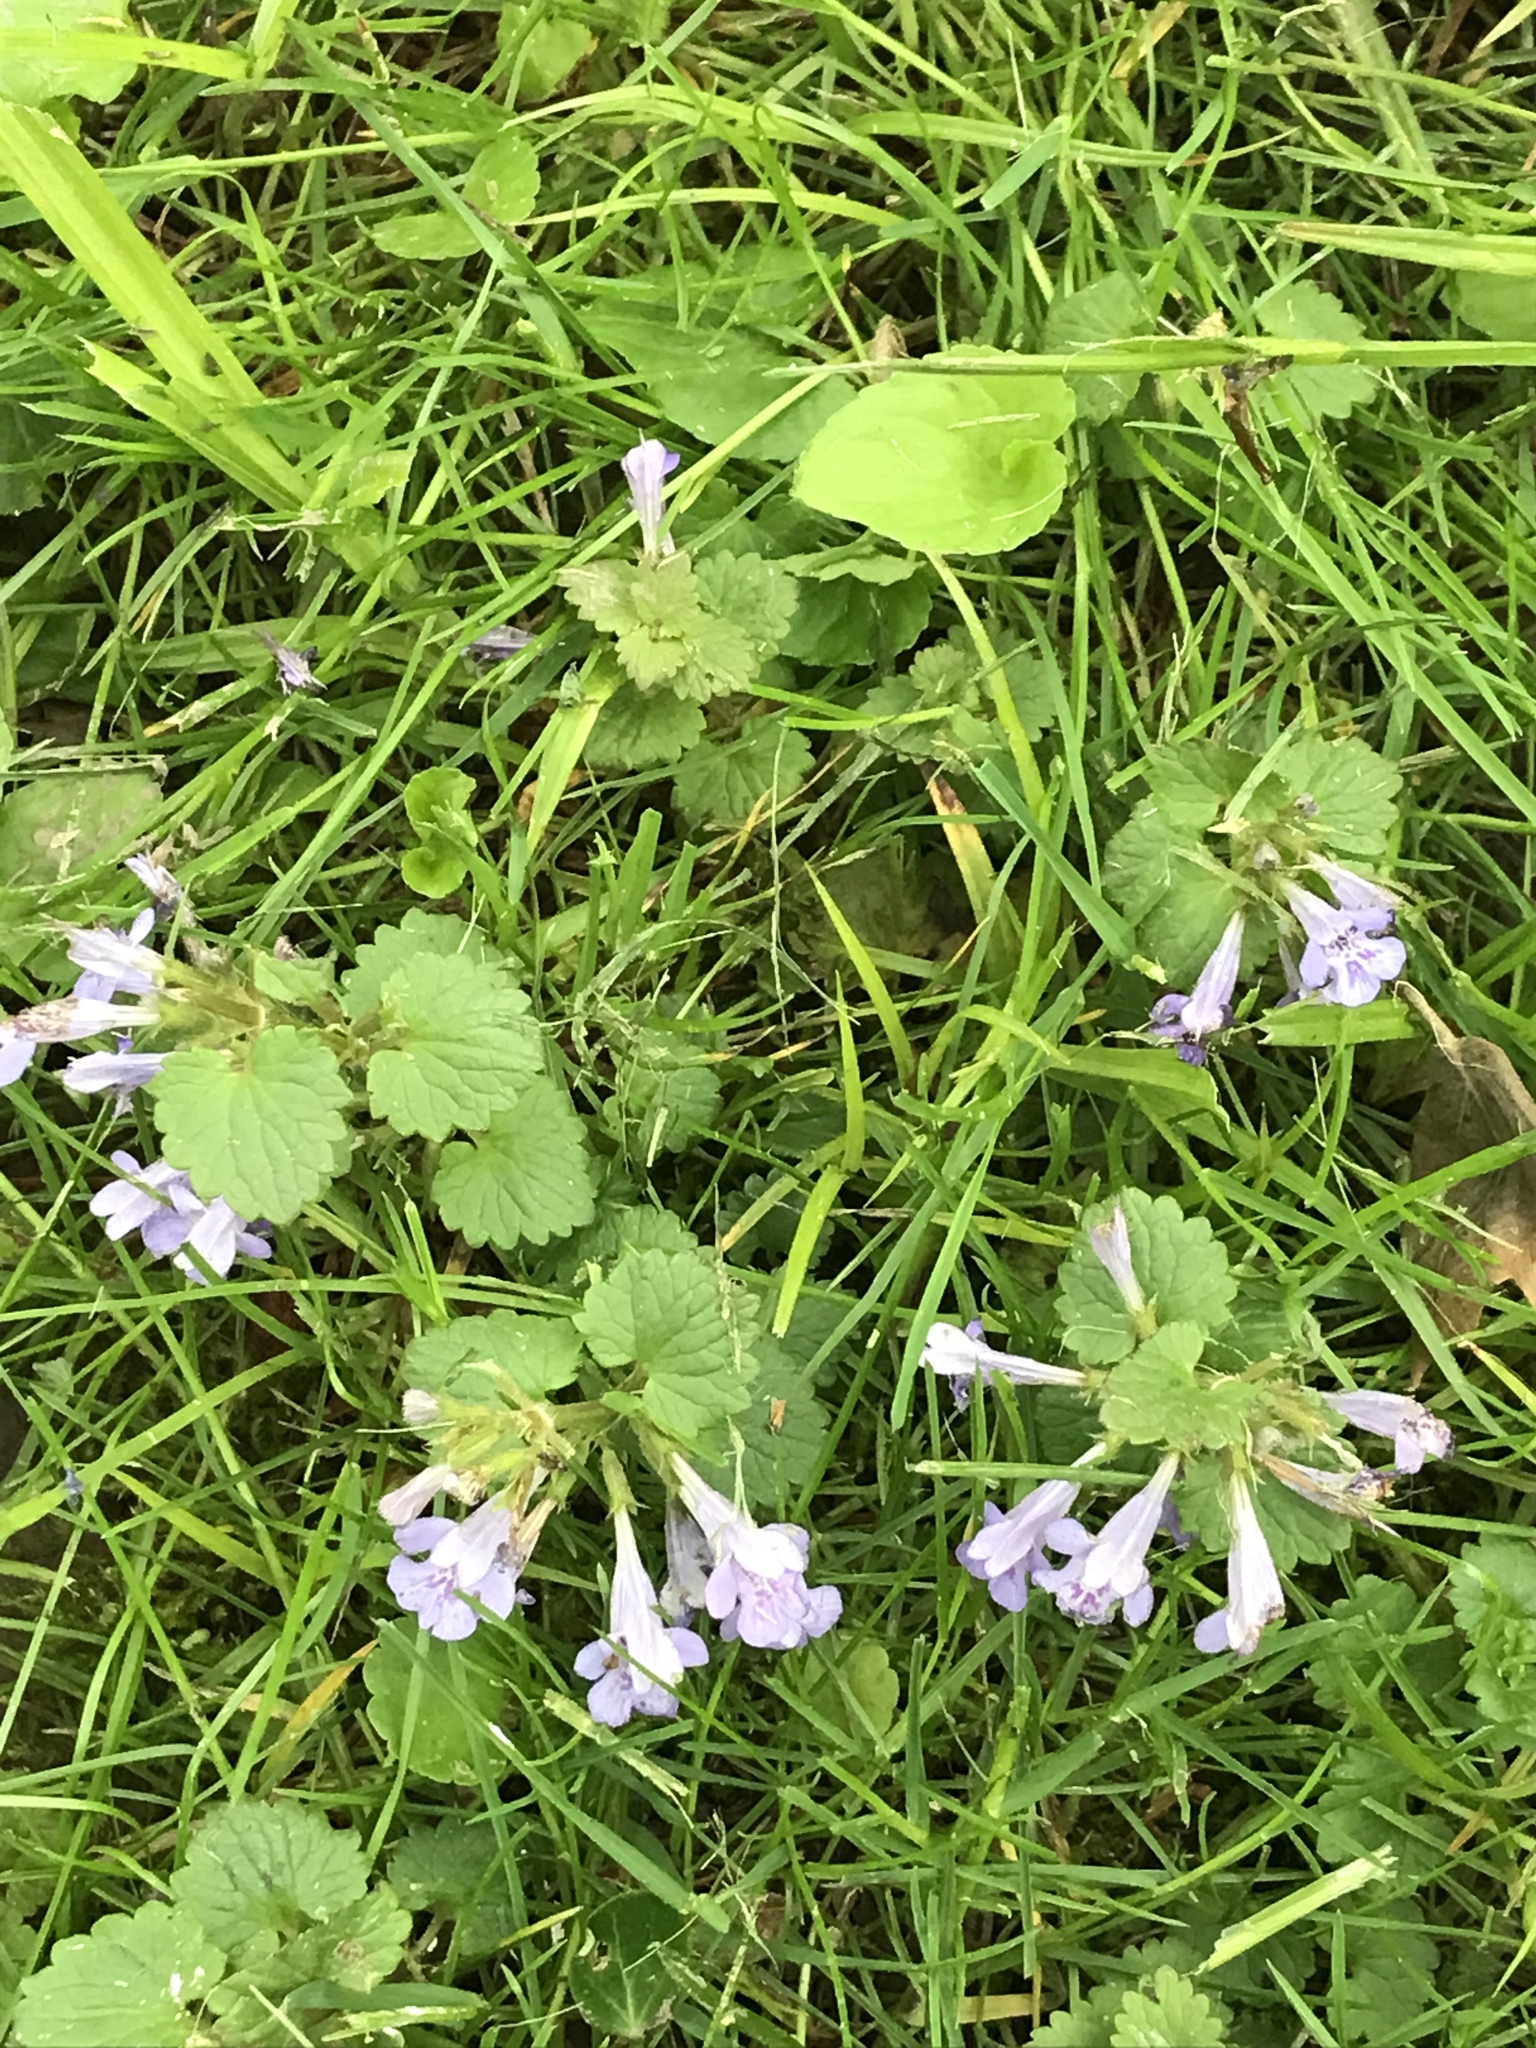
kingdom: Plantae
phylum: Tracheophyta
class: Magnoliopsida
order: Lamiales
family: Lamiaceae
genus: Glechoma
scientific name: Glechoma hederacea
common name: Ground ivy
